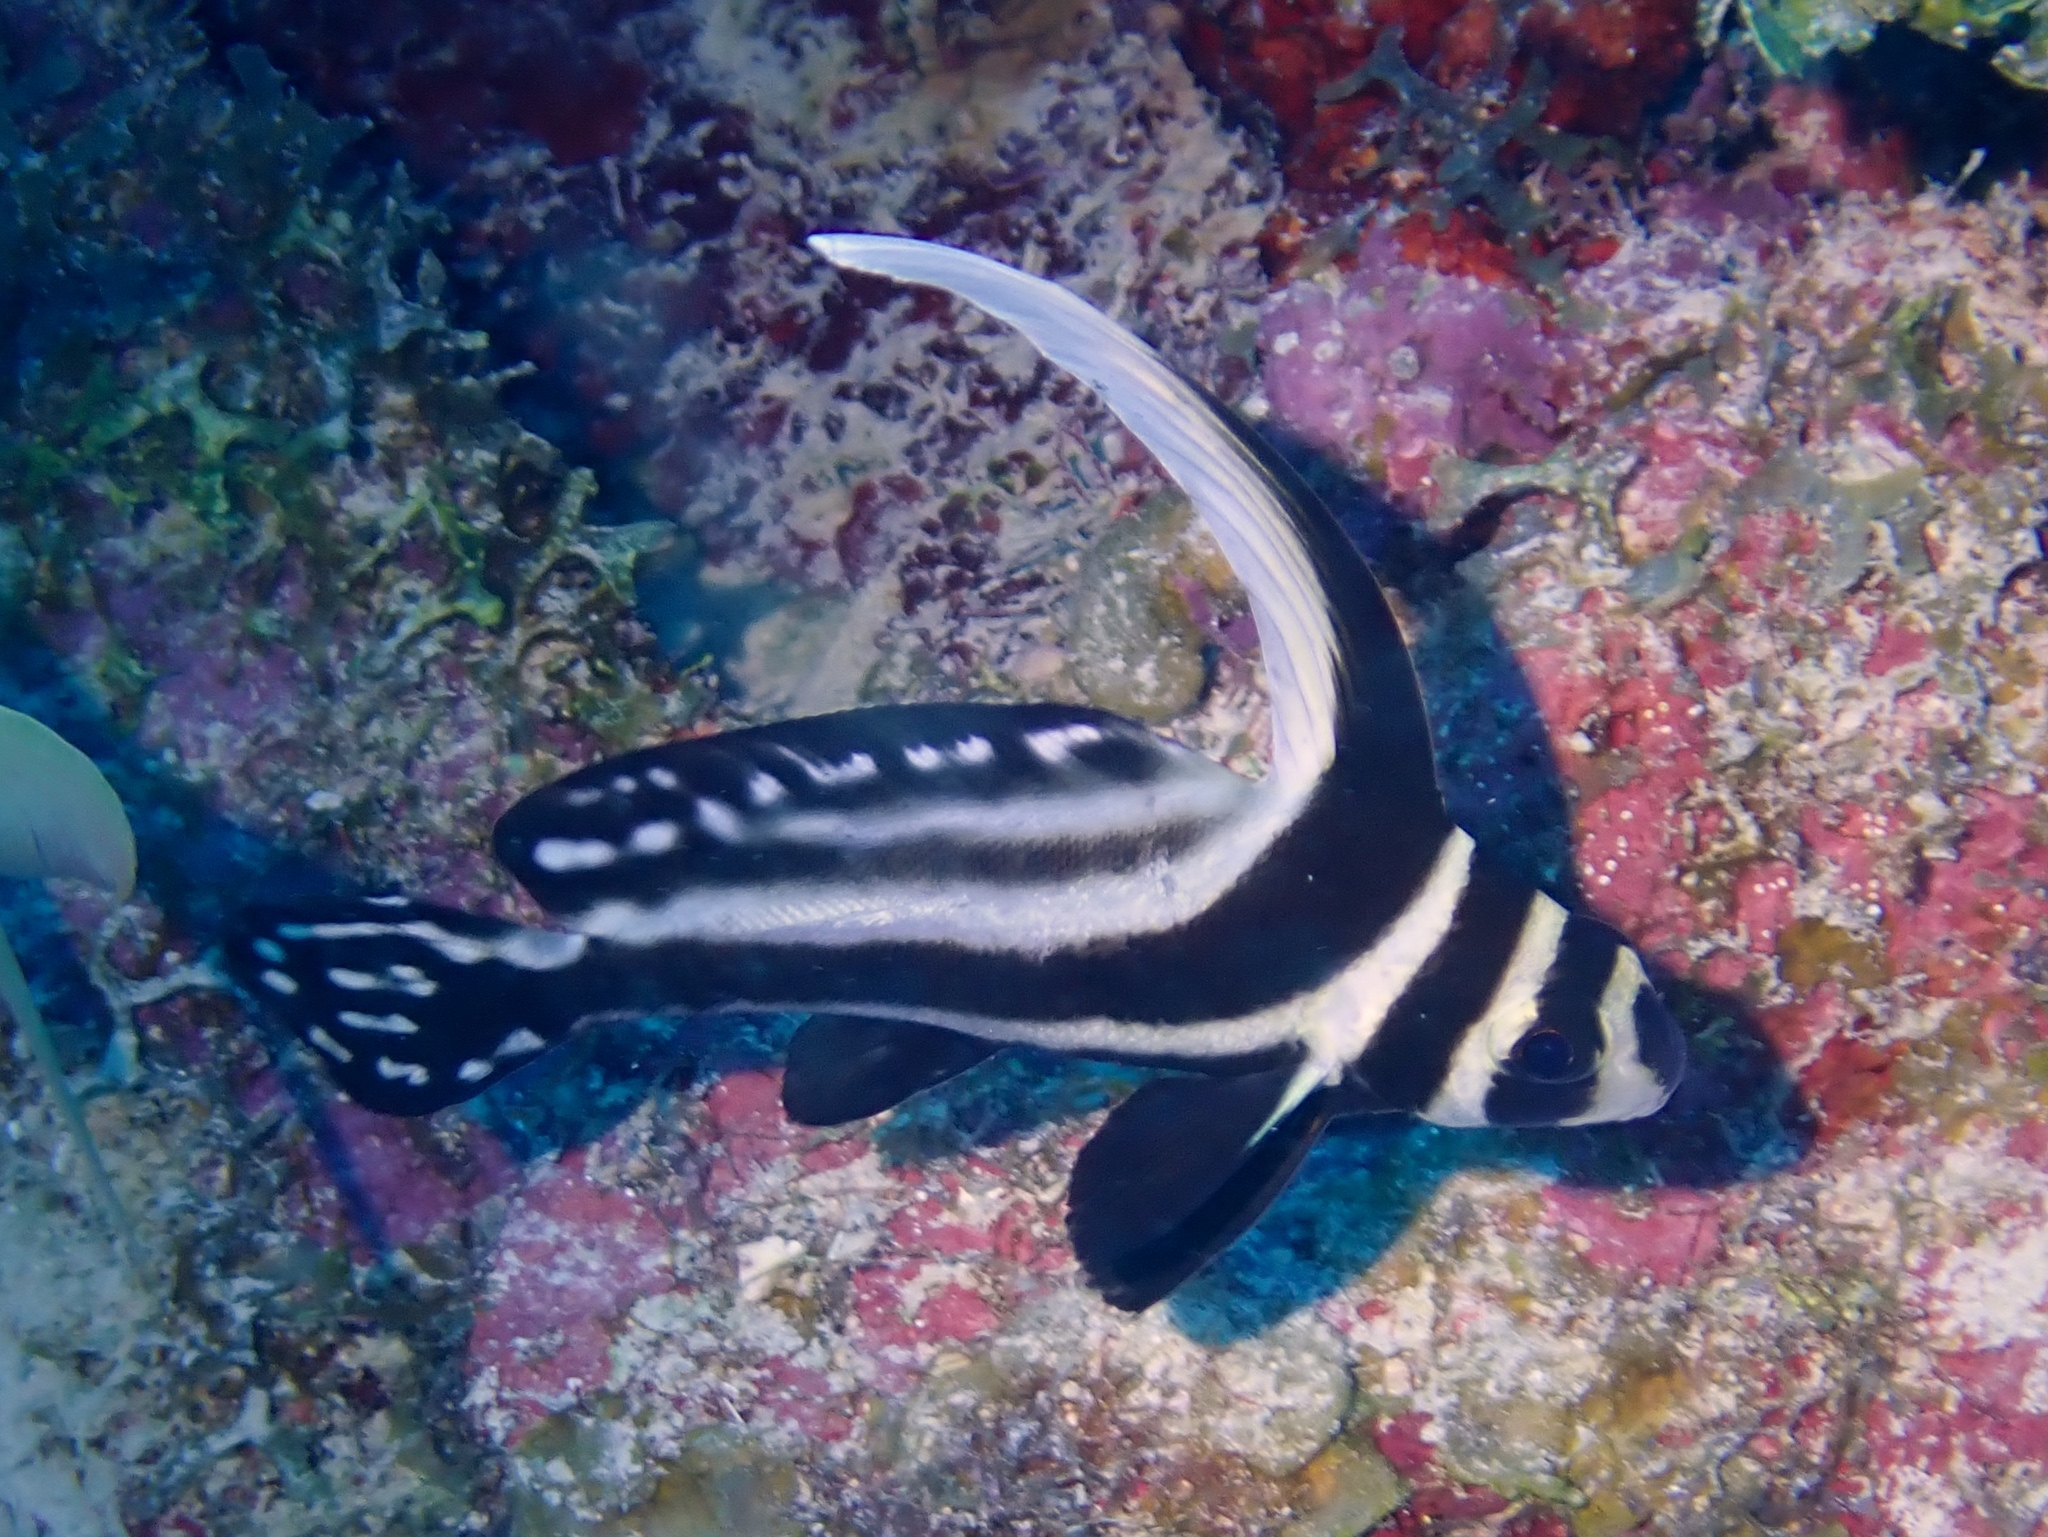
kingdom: Animalia
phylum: Chordata
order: Perciformes
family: Sciaenidae
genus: Equetus
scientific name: Equetus punctatus
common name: Spotted drum
